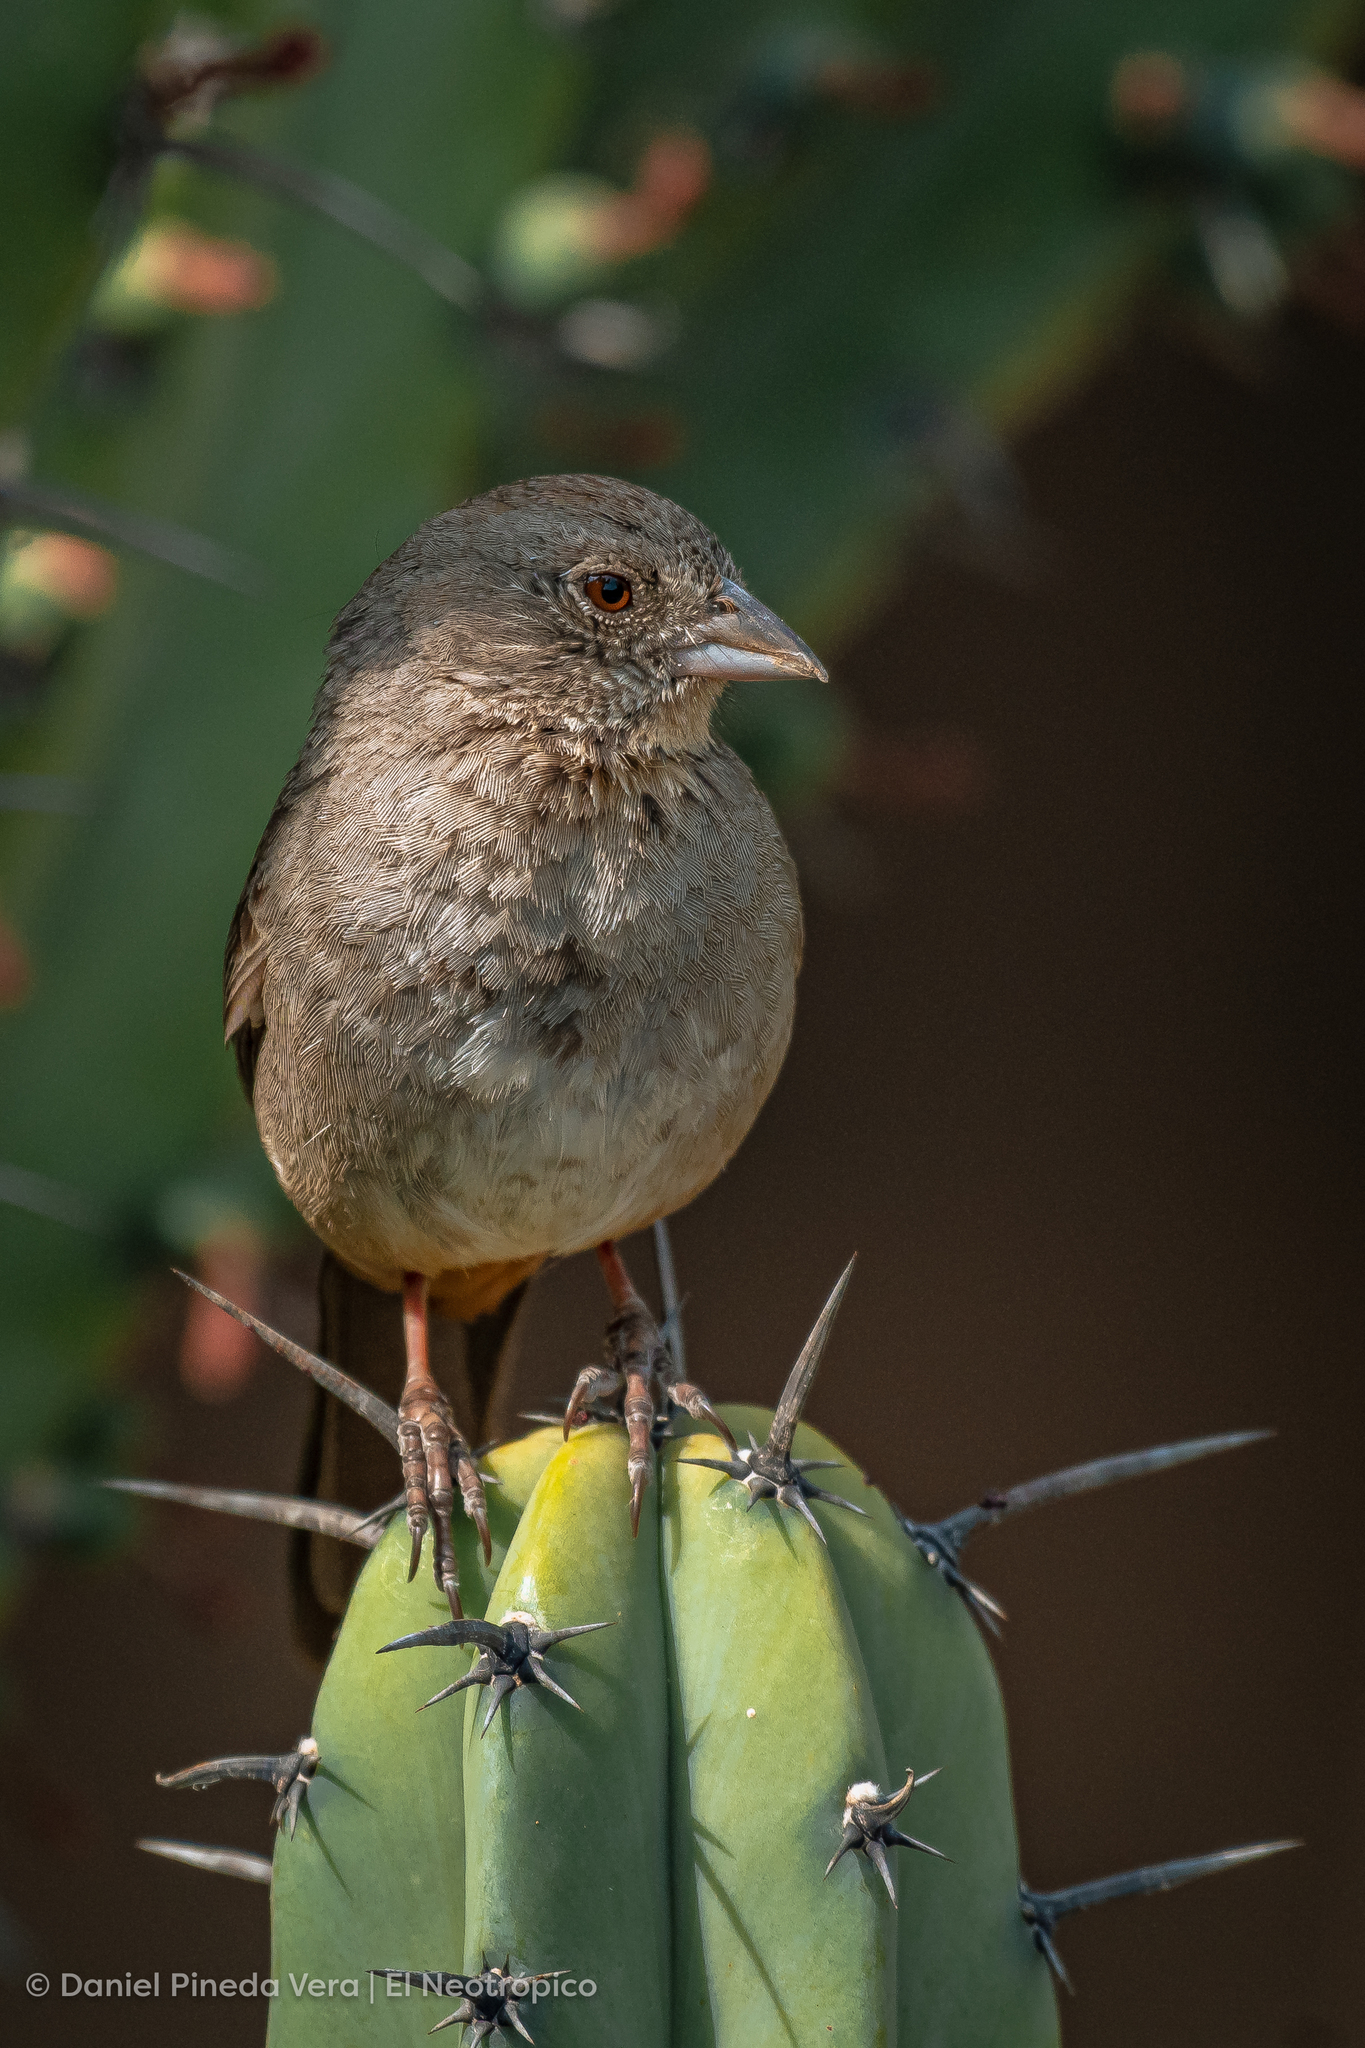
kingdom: Animalia
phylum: Chordata
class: Aves
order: Passeriformes
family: Passerellidae
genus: Melozone
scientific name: Melozone fusca
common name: Canyon towhee
